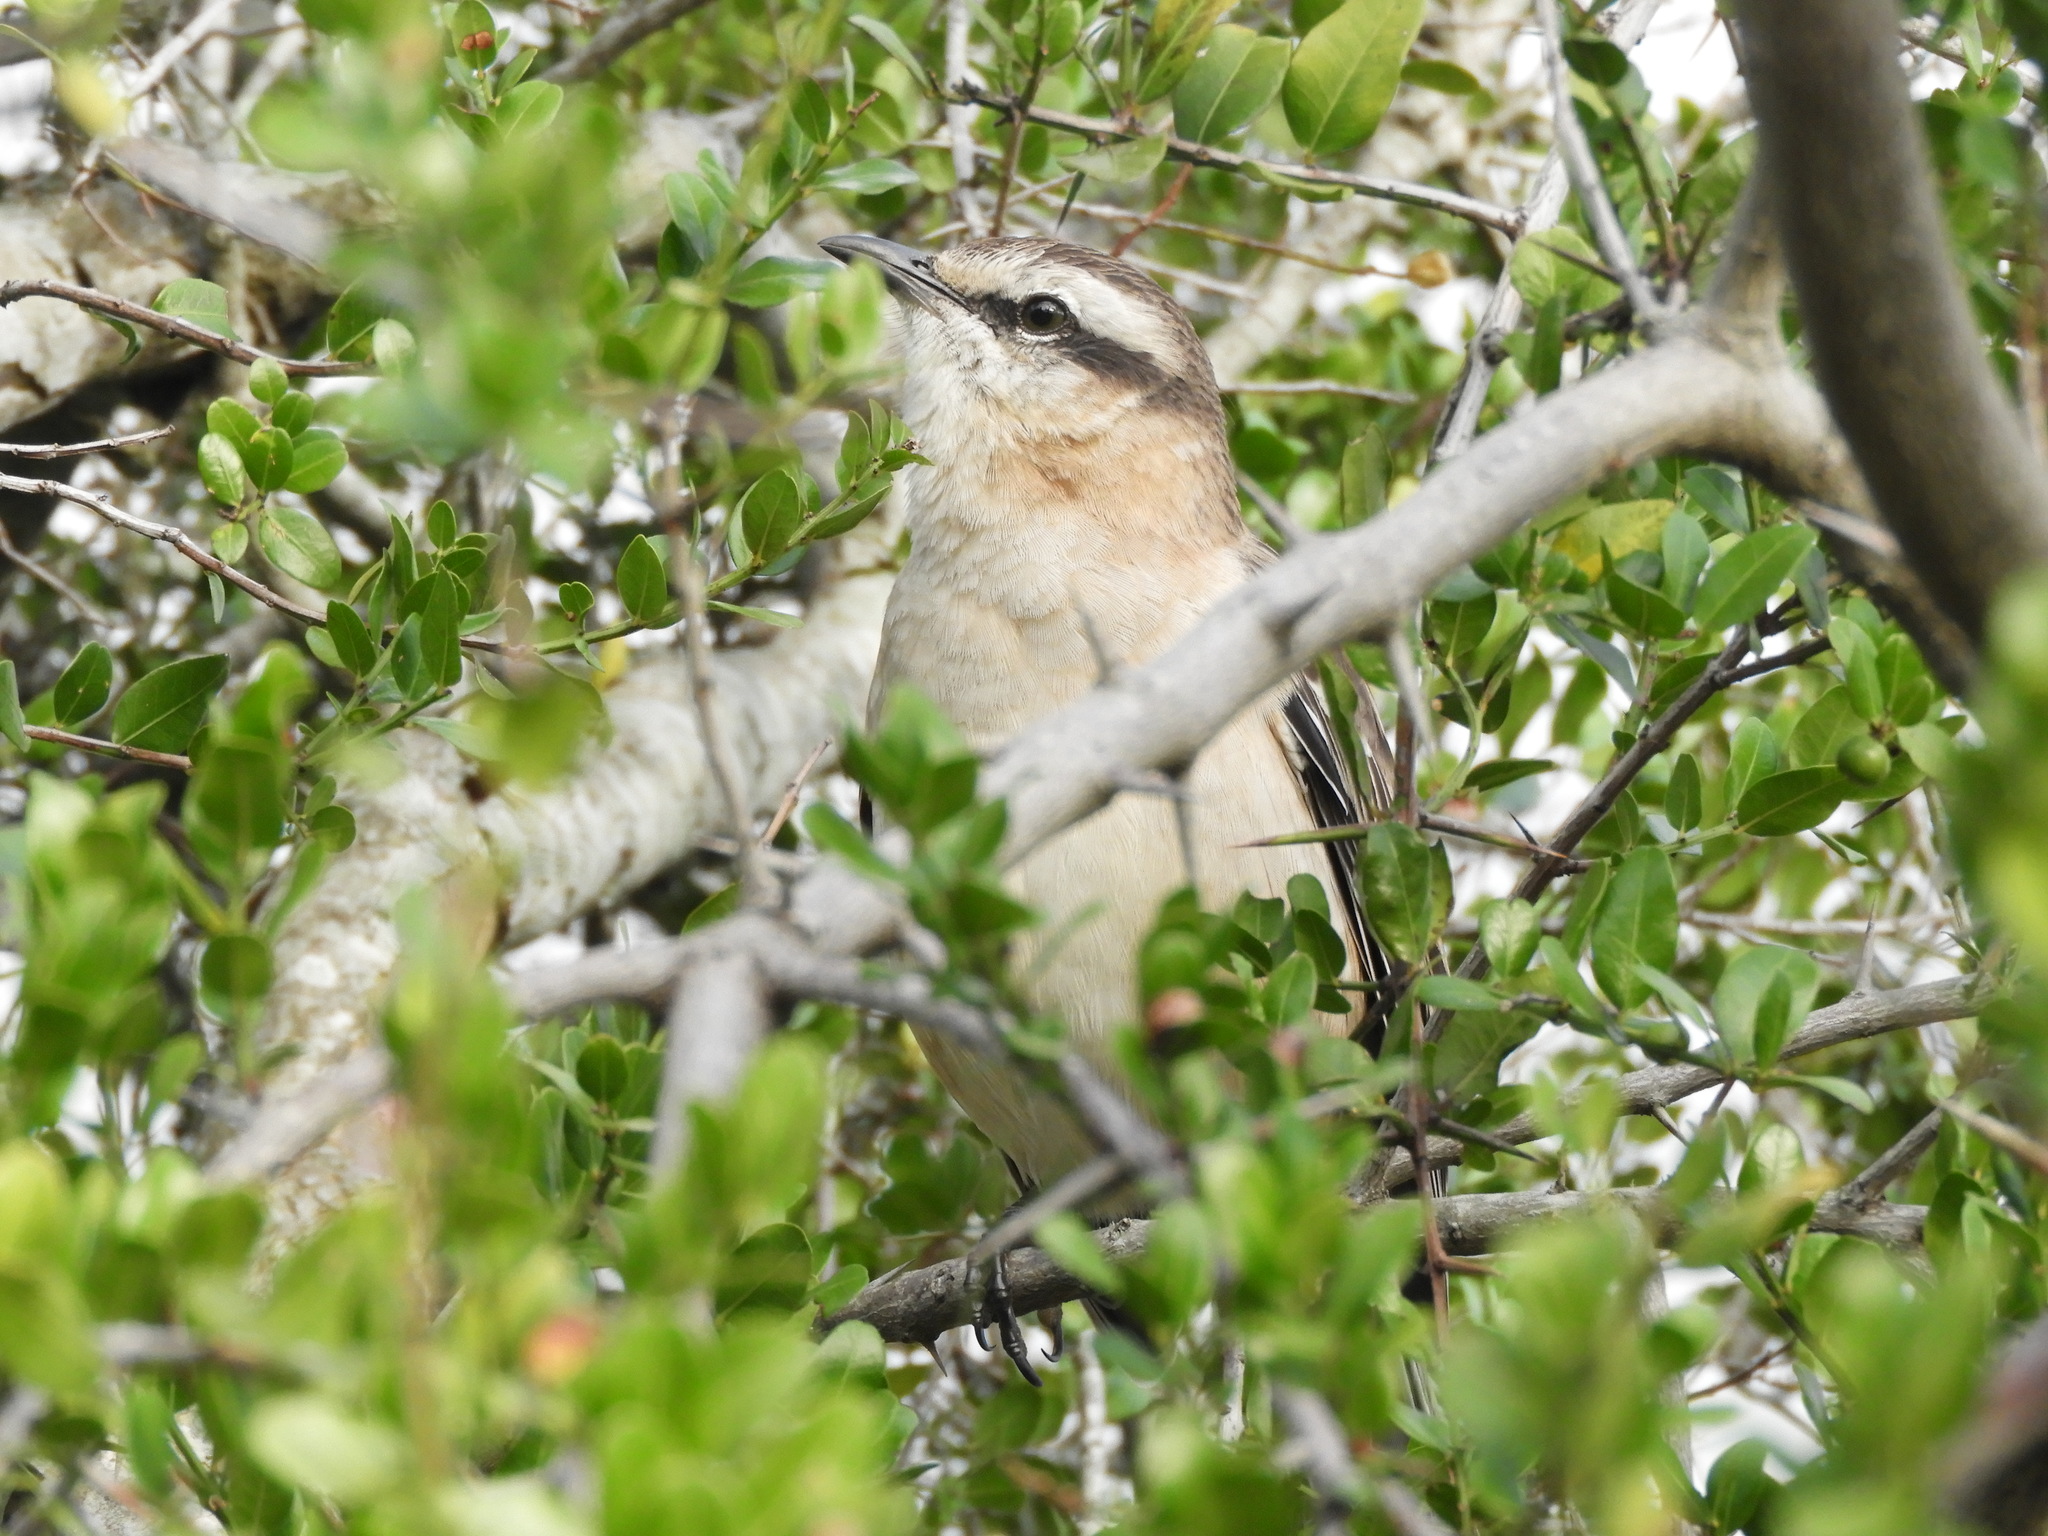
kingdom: Animalia
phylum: Chordata
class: Aves
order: Passeriformes
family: Mimidae
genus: Mimus
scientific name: Mimus saturninus
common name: Chalk-browed mockingbird
